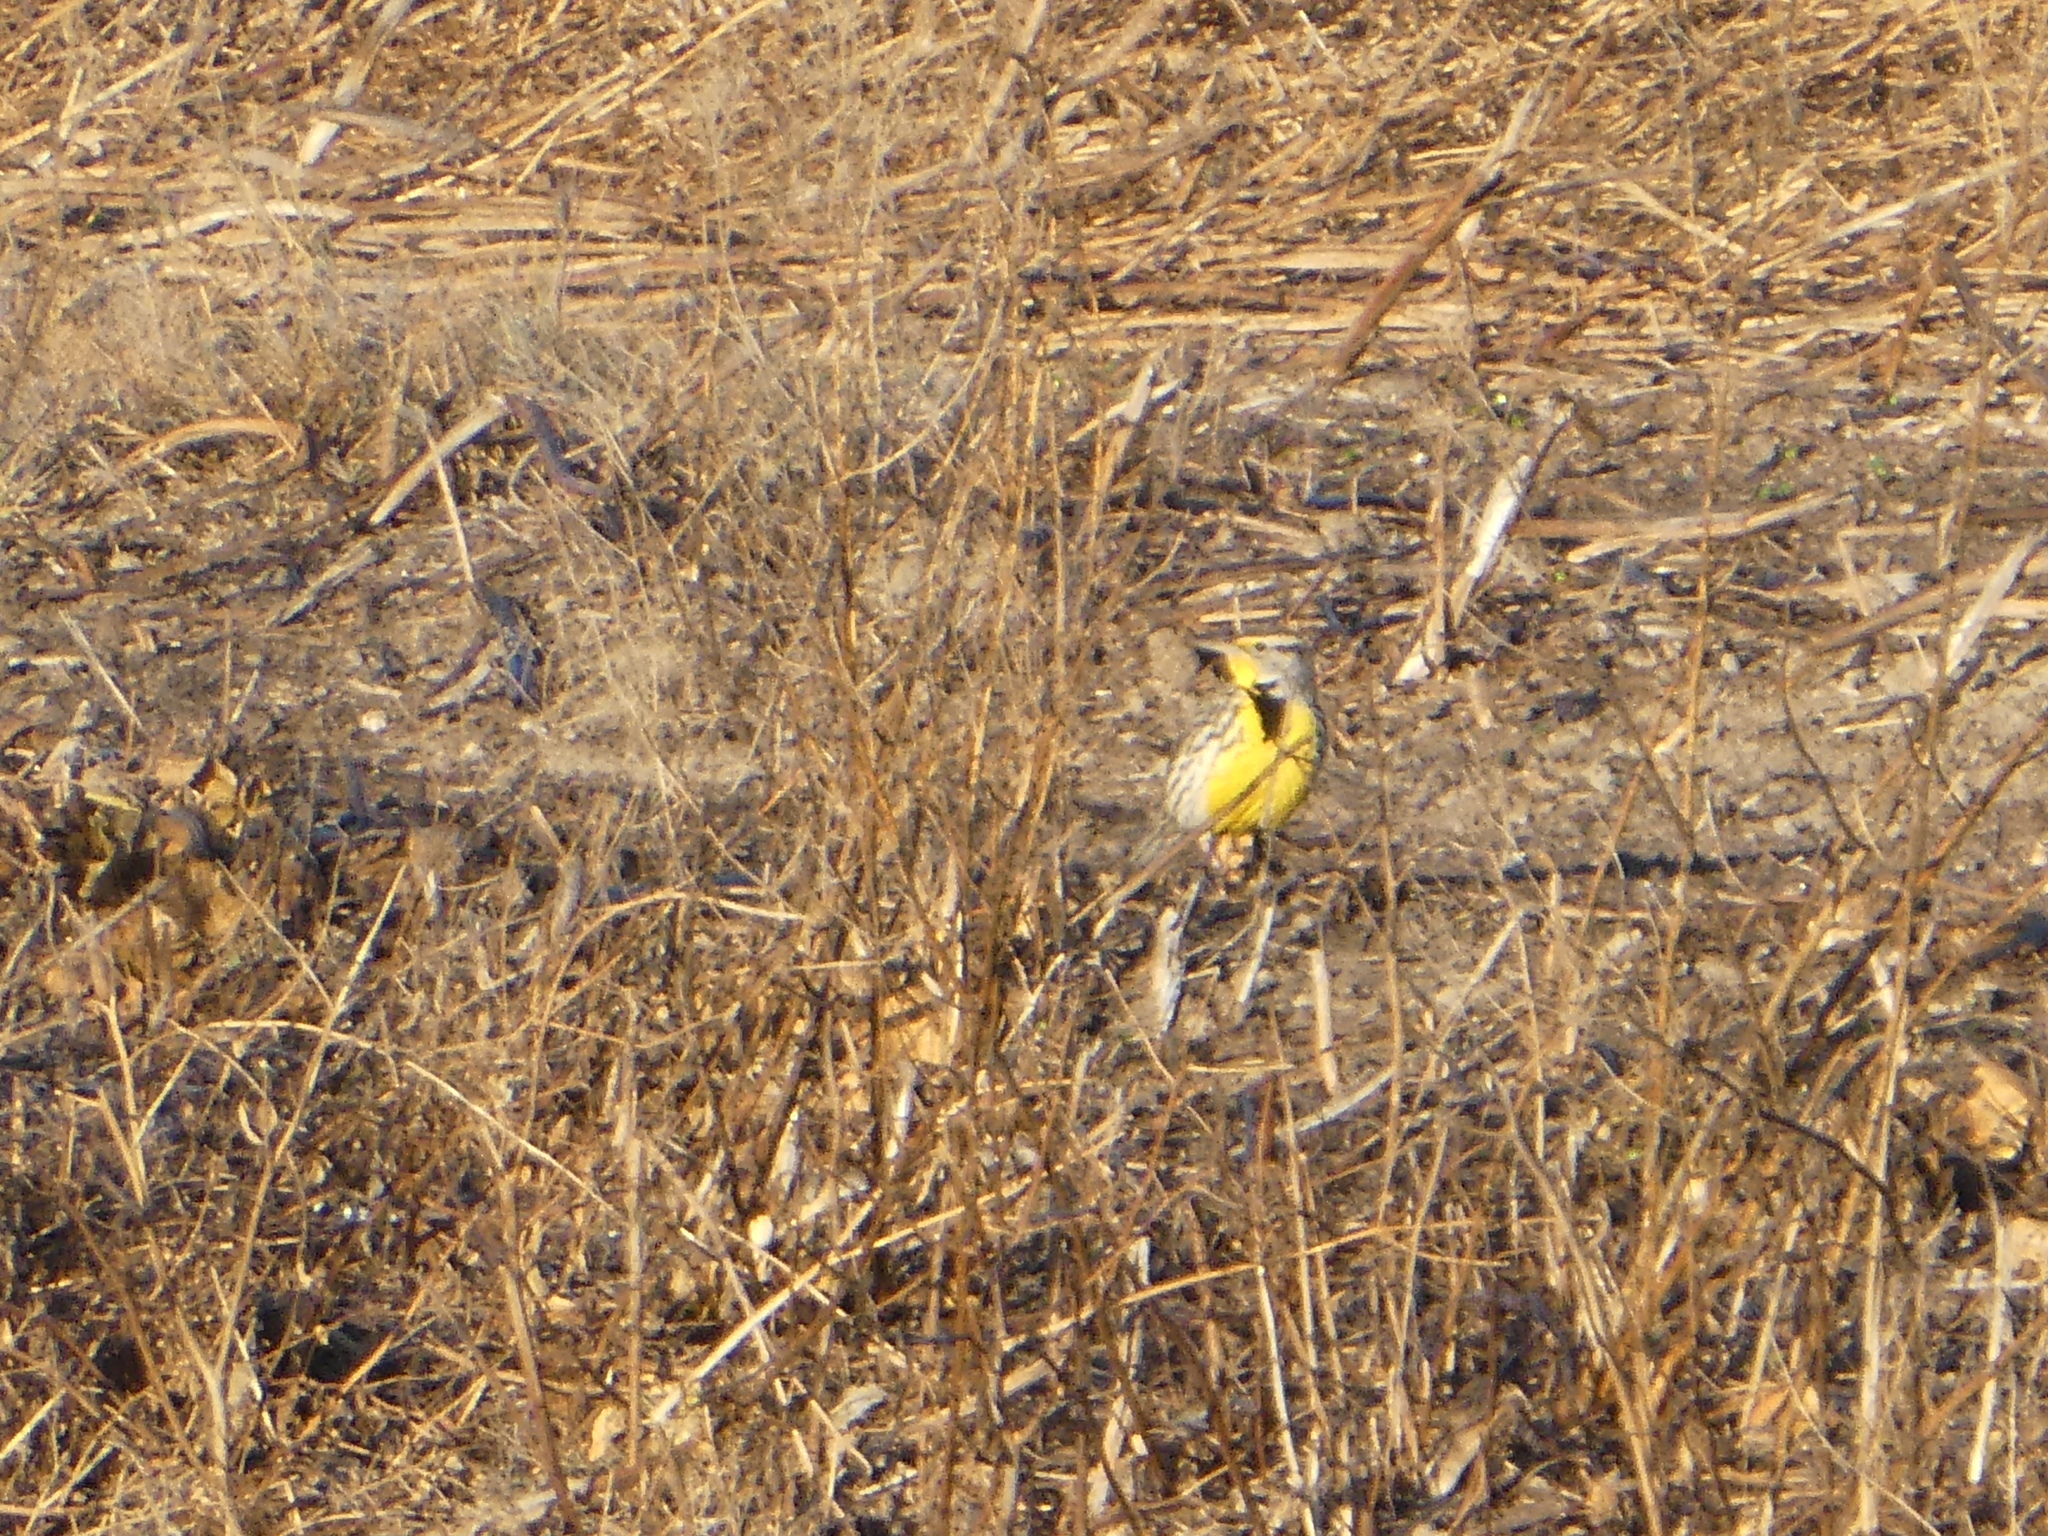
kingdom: Animalia
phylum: Chordata
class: Aves
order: Passeriformes
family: Icteridae
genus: Sturnella
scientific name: Sturnella neglecta
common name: Western meadowlark
